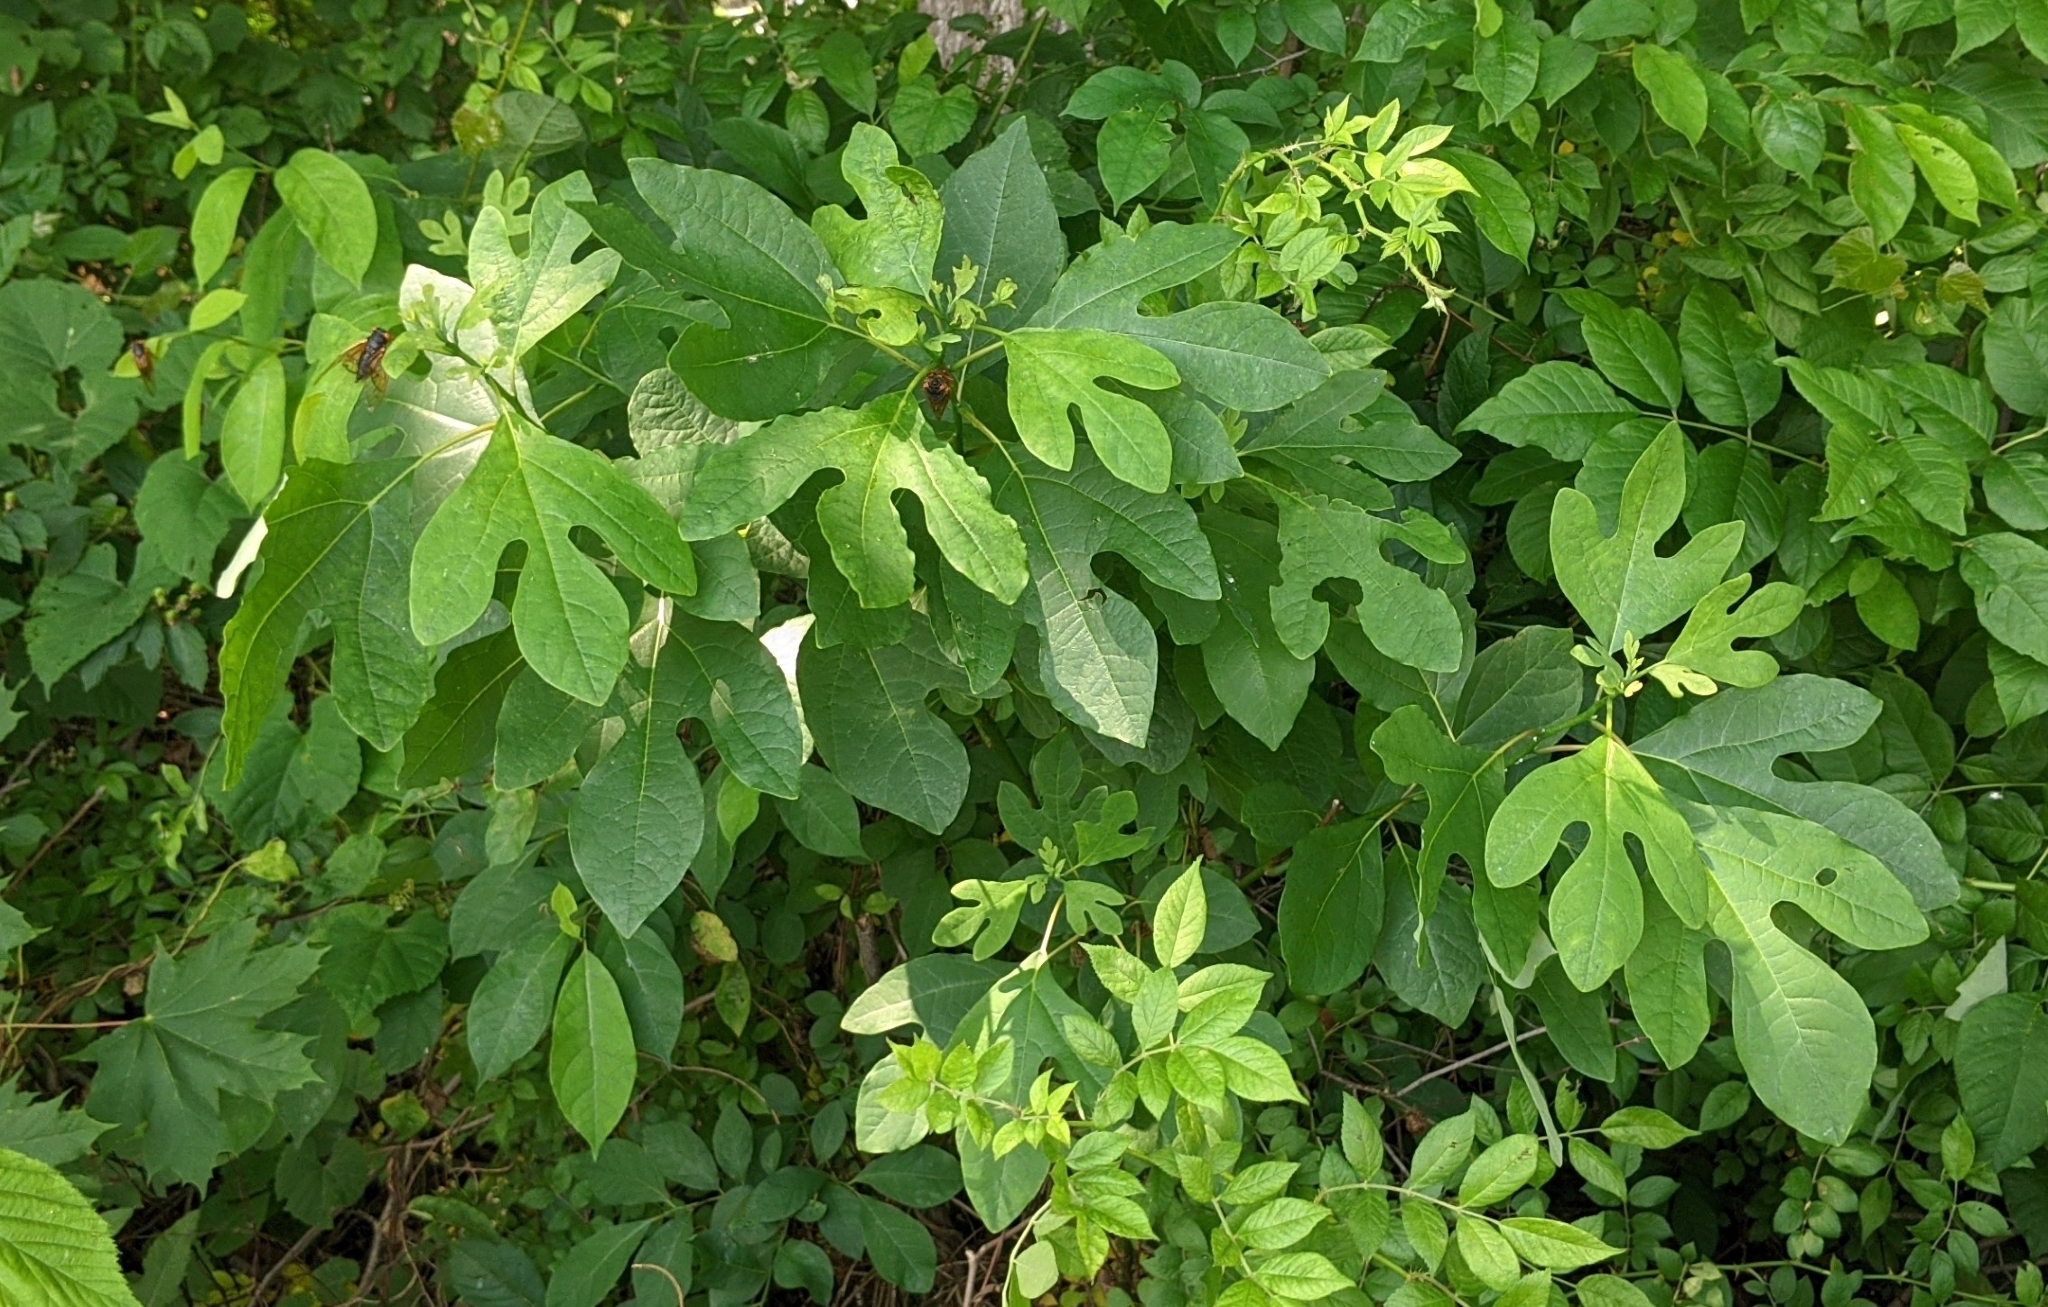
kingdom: Plantae
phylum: Tracheophyta
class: Magnoliopsida
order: Laurales
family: Lauraceae
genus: Sassafras
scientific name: Sassafras albidum
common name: Sassafras
